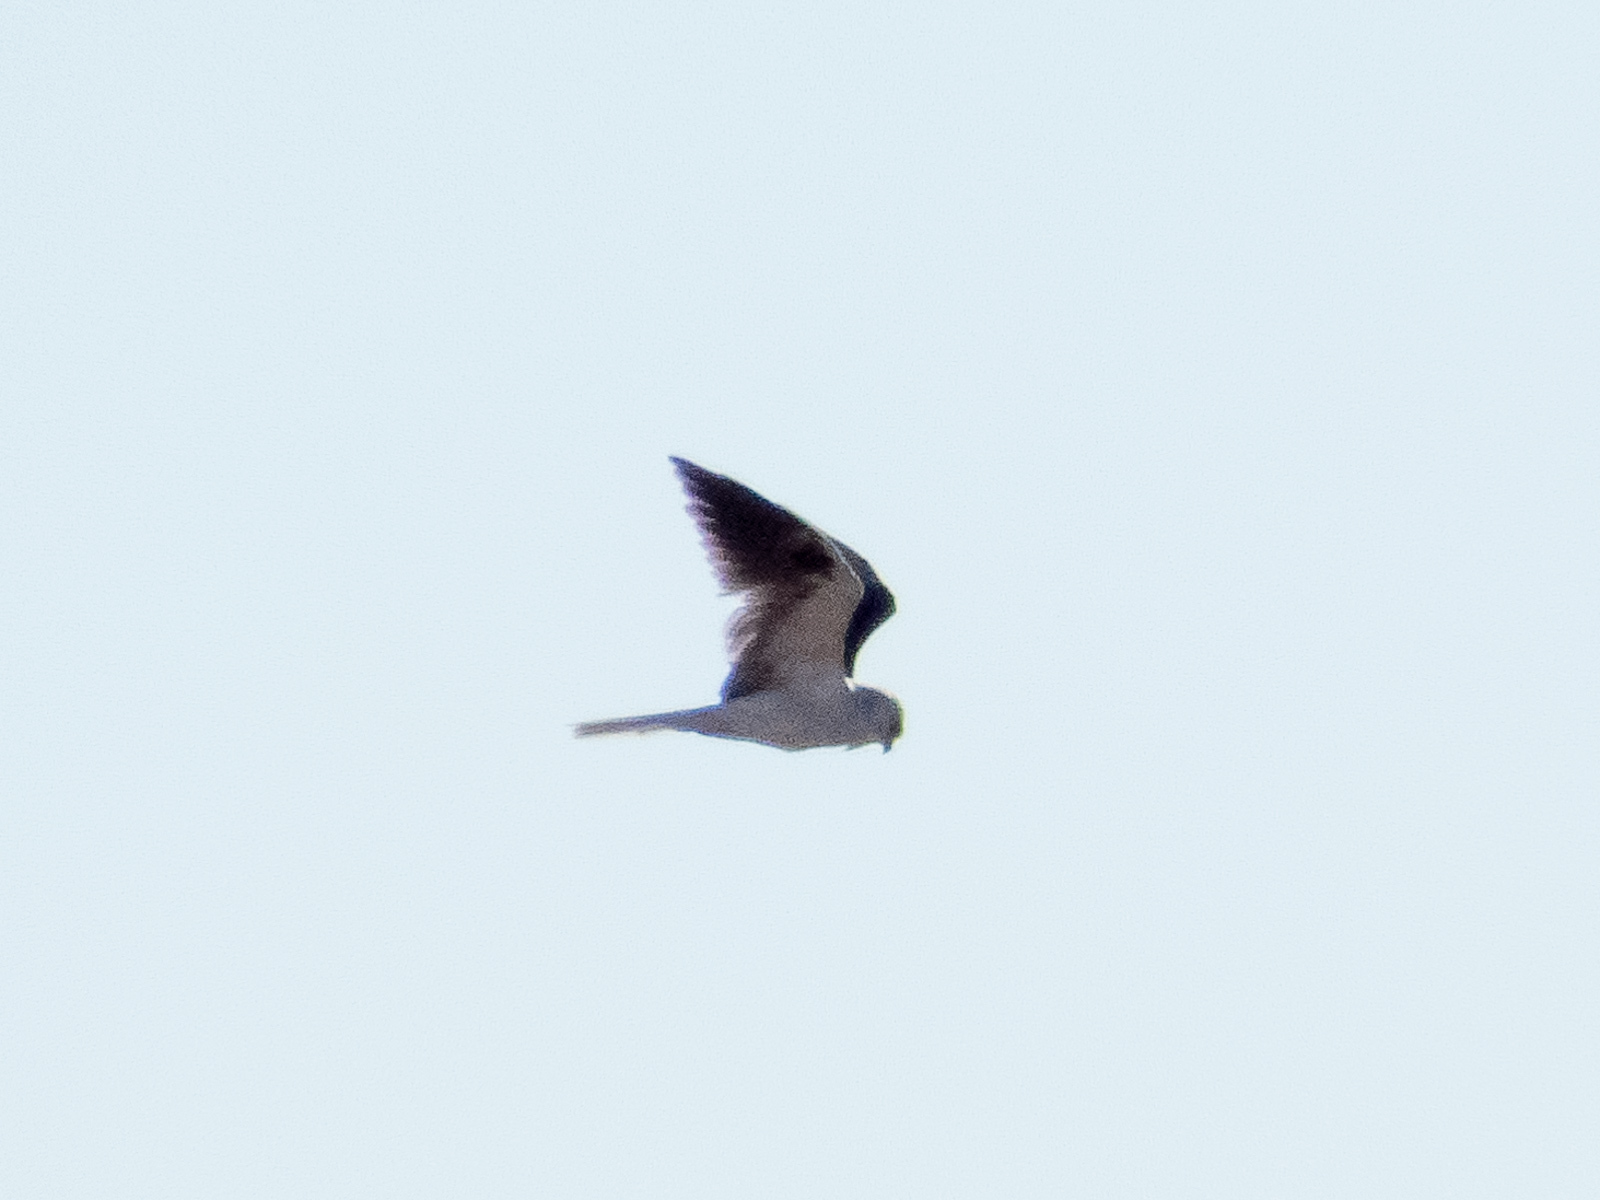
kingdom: Animalia
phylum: Chordata
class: Aves
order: Accipitriformes
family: Accipitridae
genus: Elanus
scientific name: Elanus leucurus
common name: White-tailed kite
